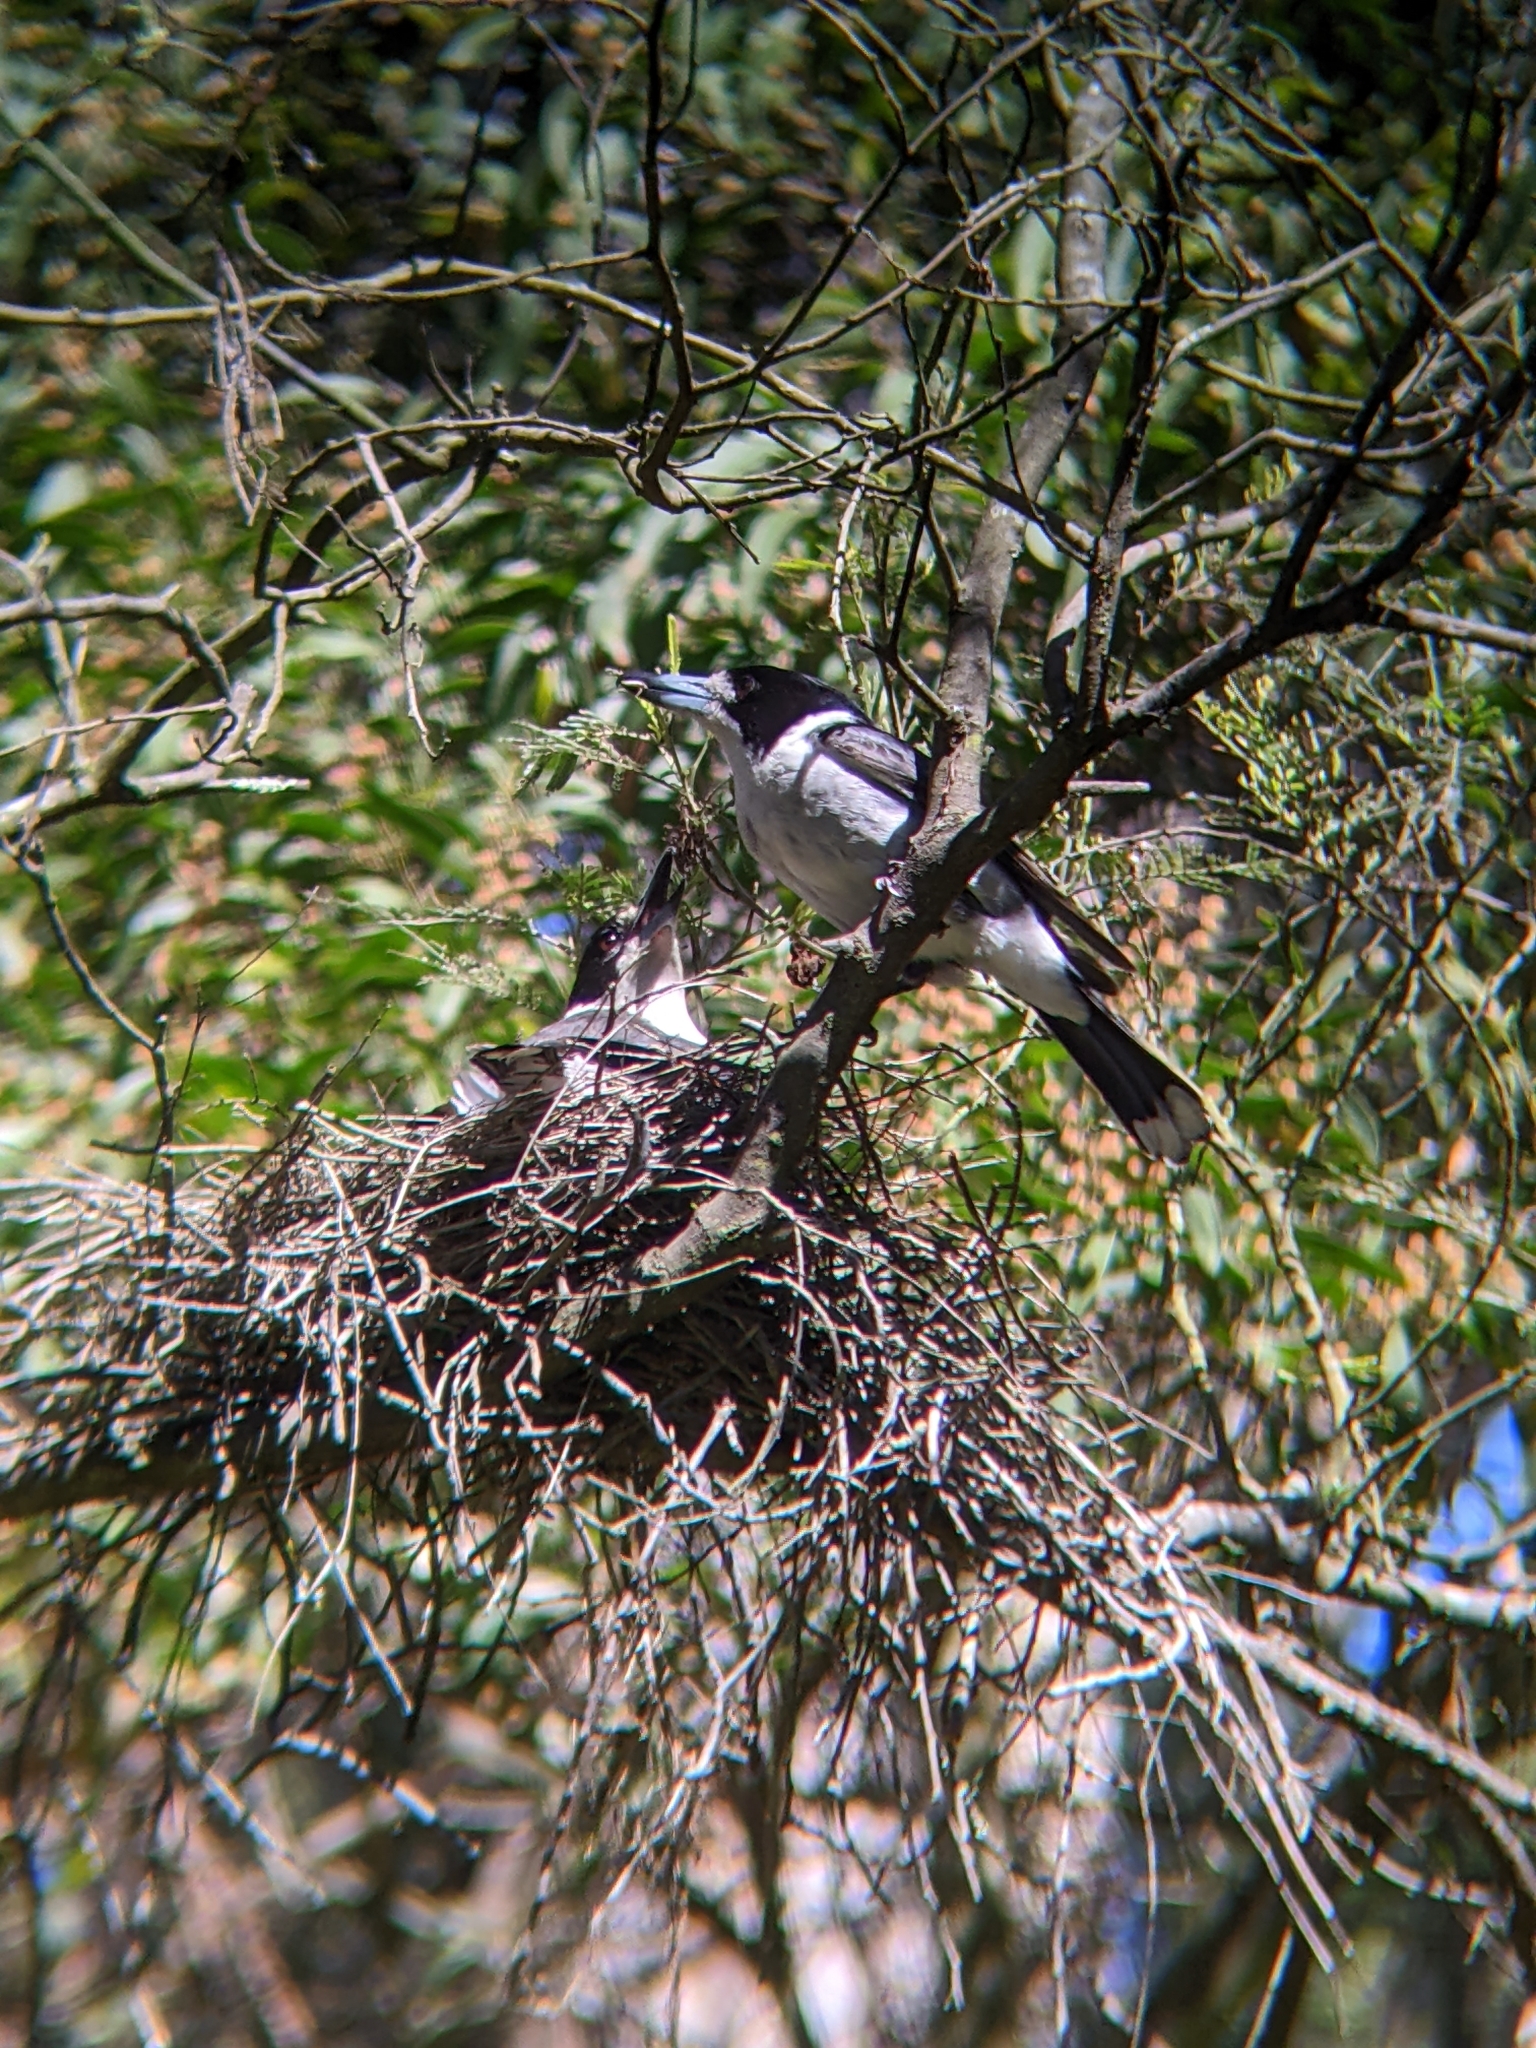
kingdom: Animalia
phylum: Chordata
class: Aves
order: Passeriformes
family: Cracticidae
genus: Cracticus
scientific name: Cracticus torquatus
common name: Grey butcherbird
